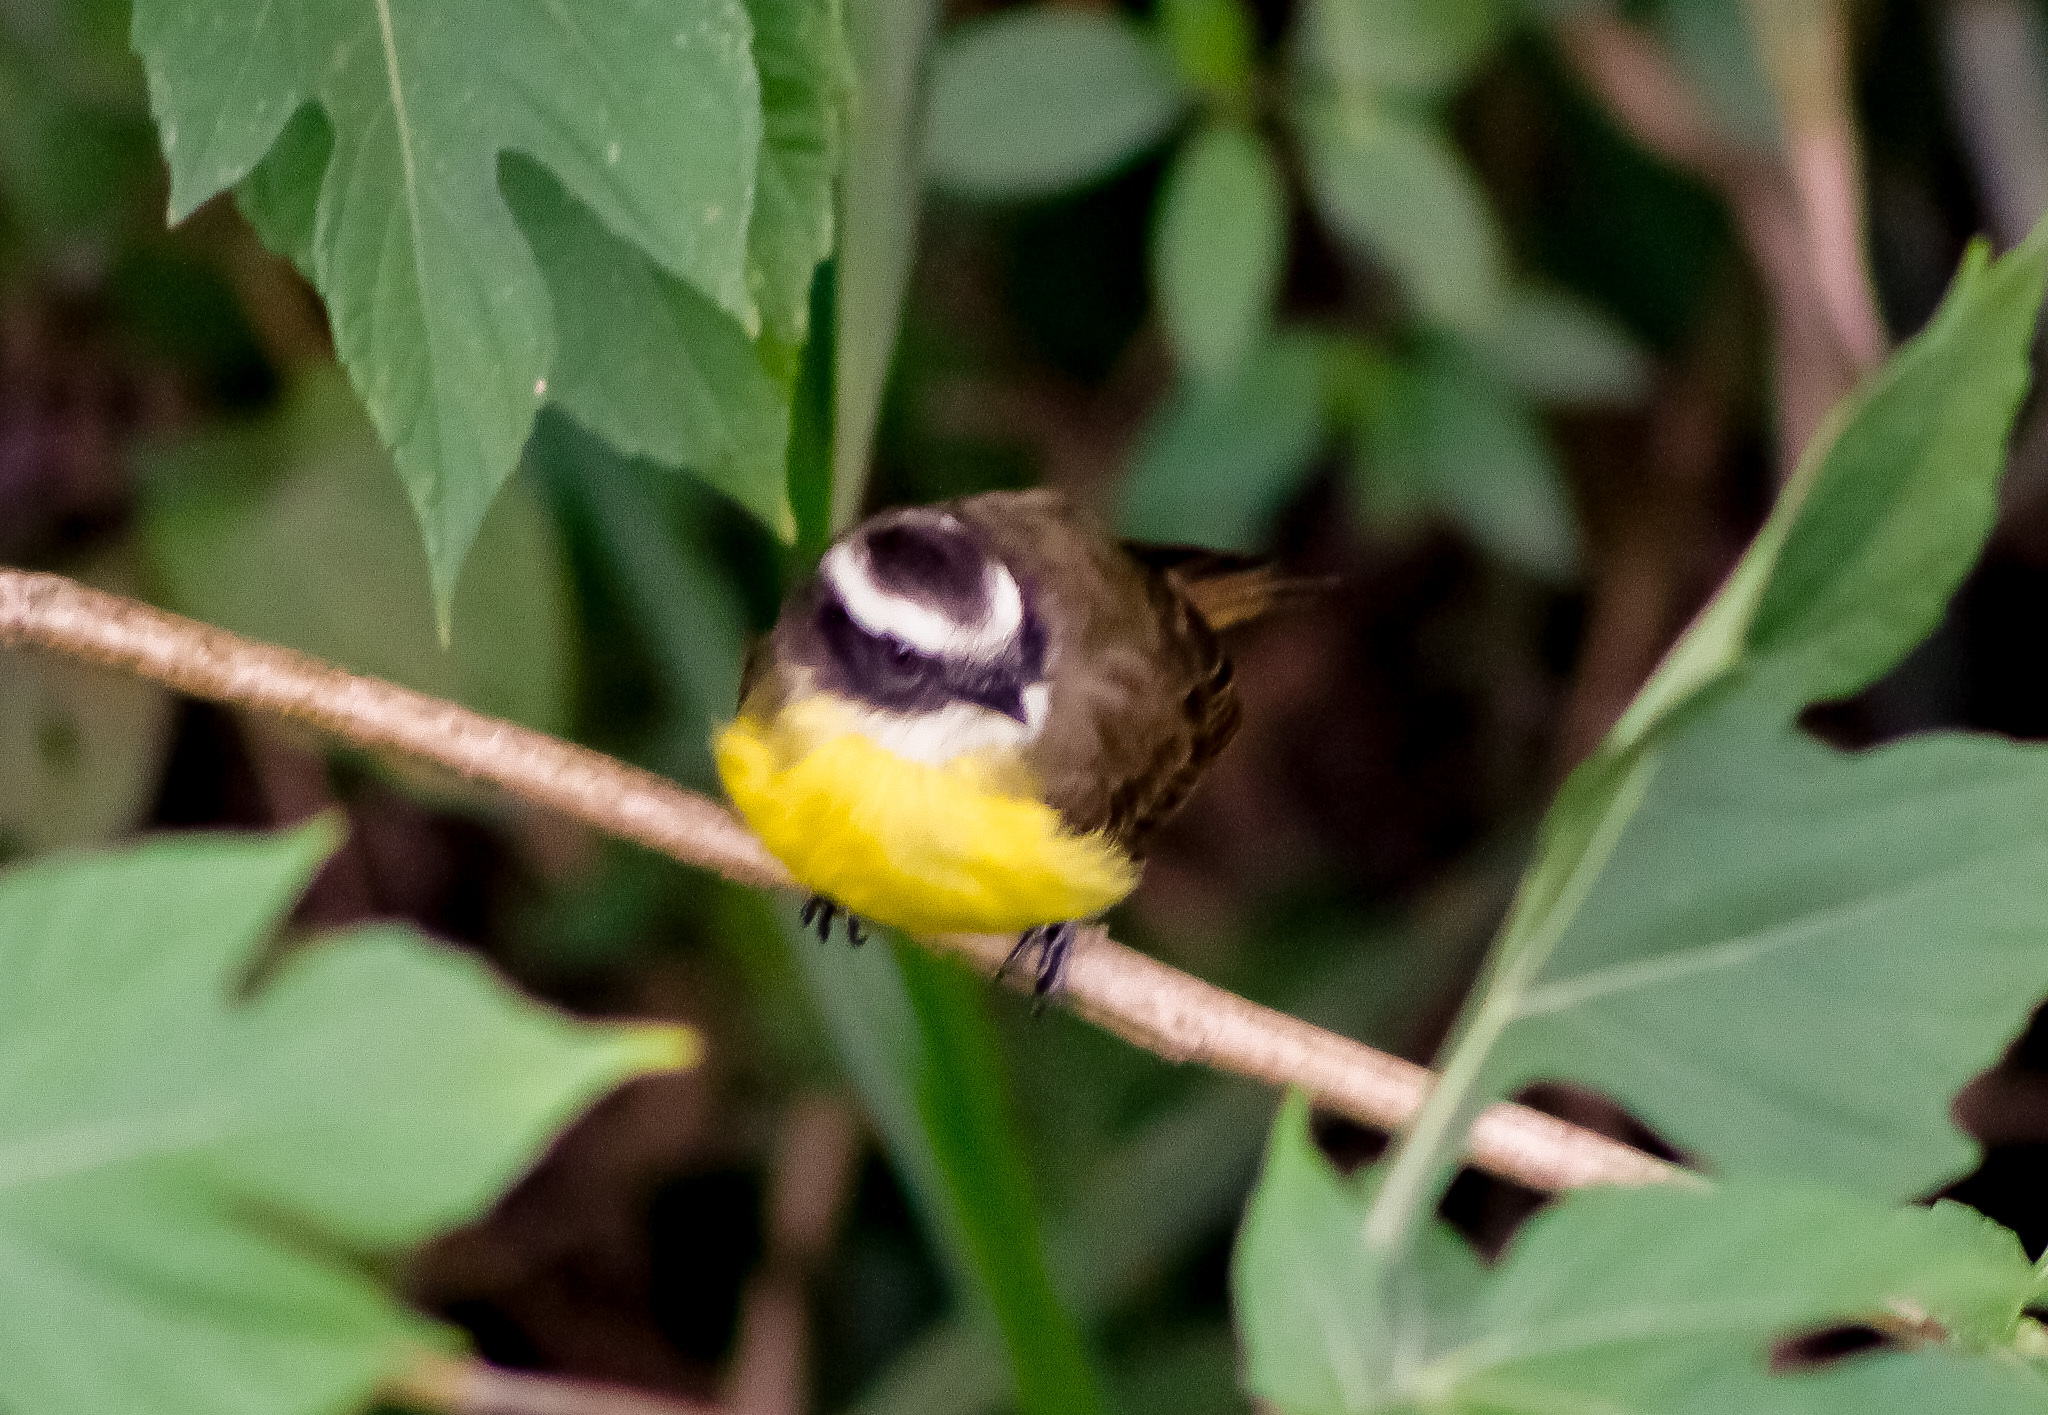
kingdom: Animalia
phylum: Chordata
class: Aves
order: Passeriformes
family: Tyrannidae
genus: Myiozetetes
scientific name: Myiozetetes cayanensis
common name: Rusty-margined flycatcher
